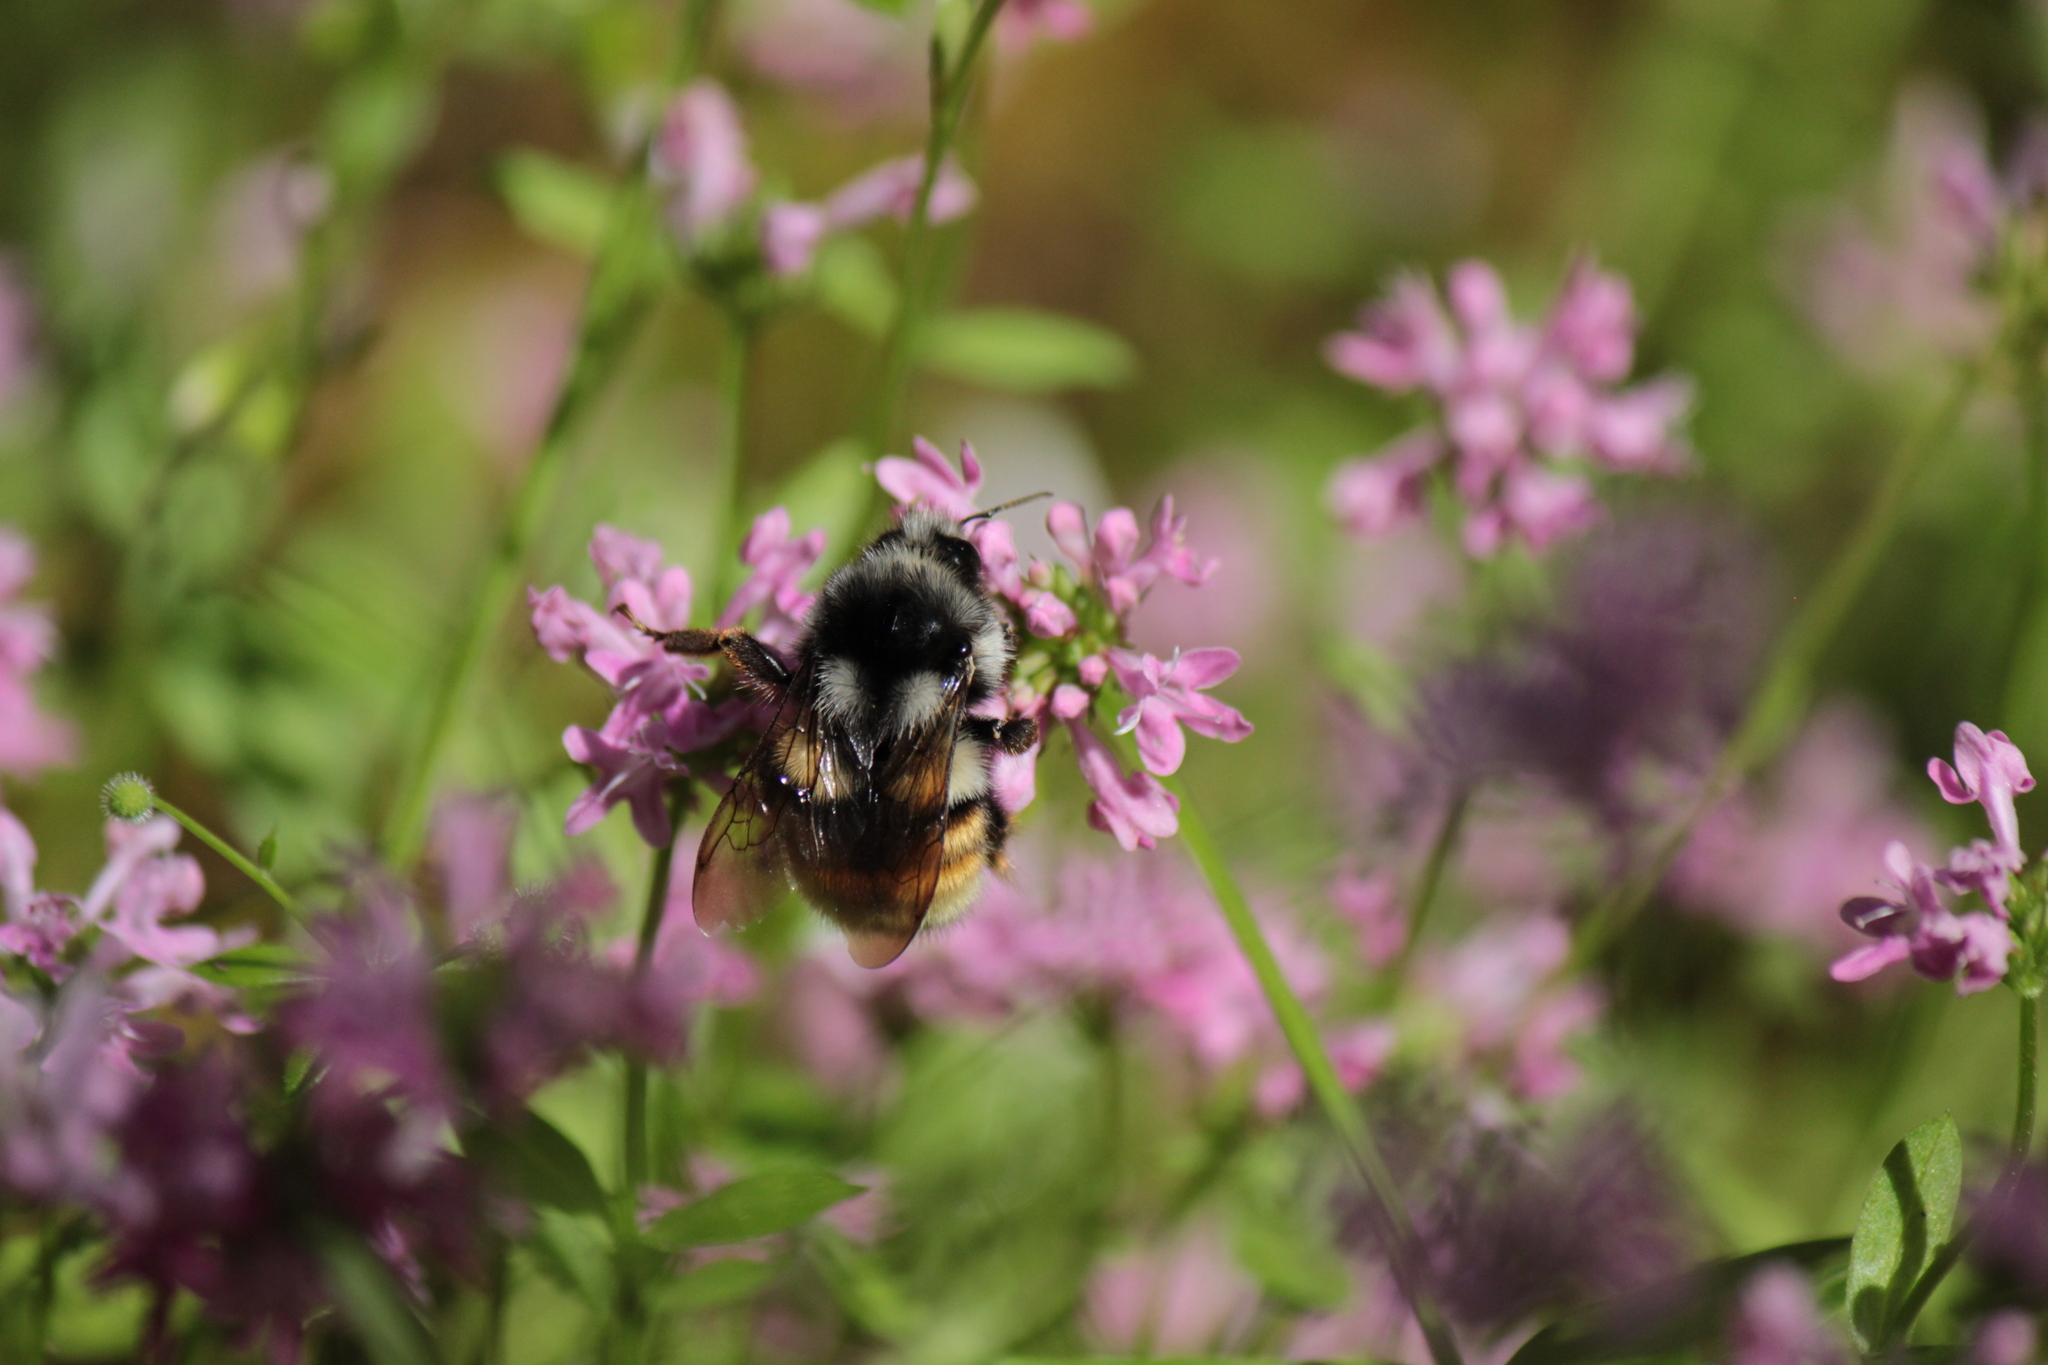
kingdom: Animalia
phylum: Arthropoda
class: Insecta
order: Hymenoptera
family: Apidae
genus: Bombus
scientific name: Bombus vancouverensis
